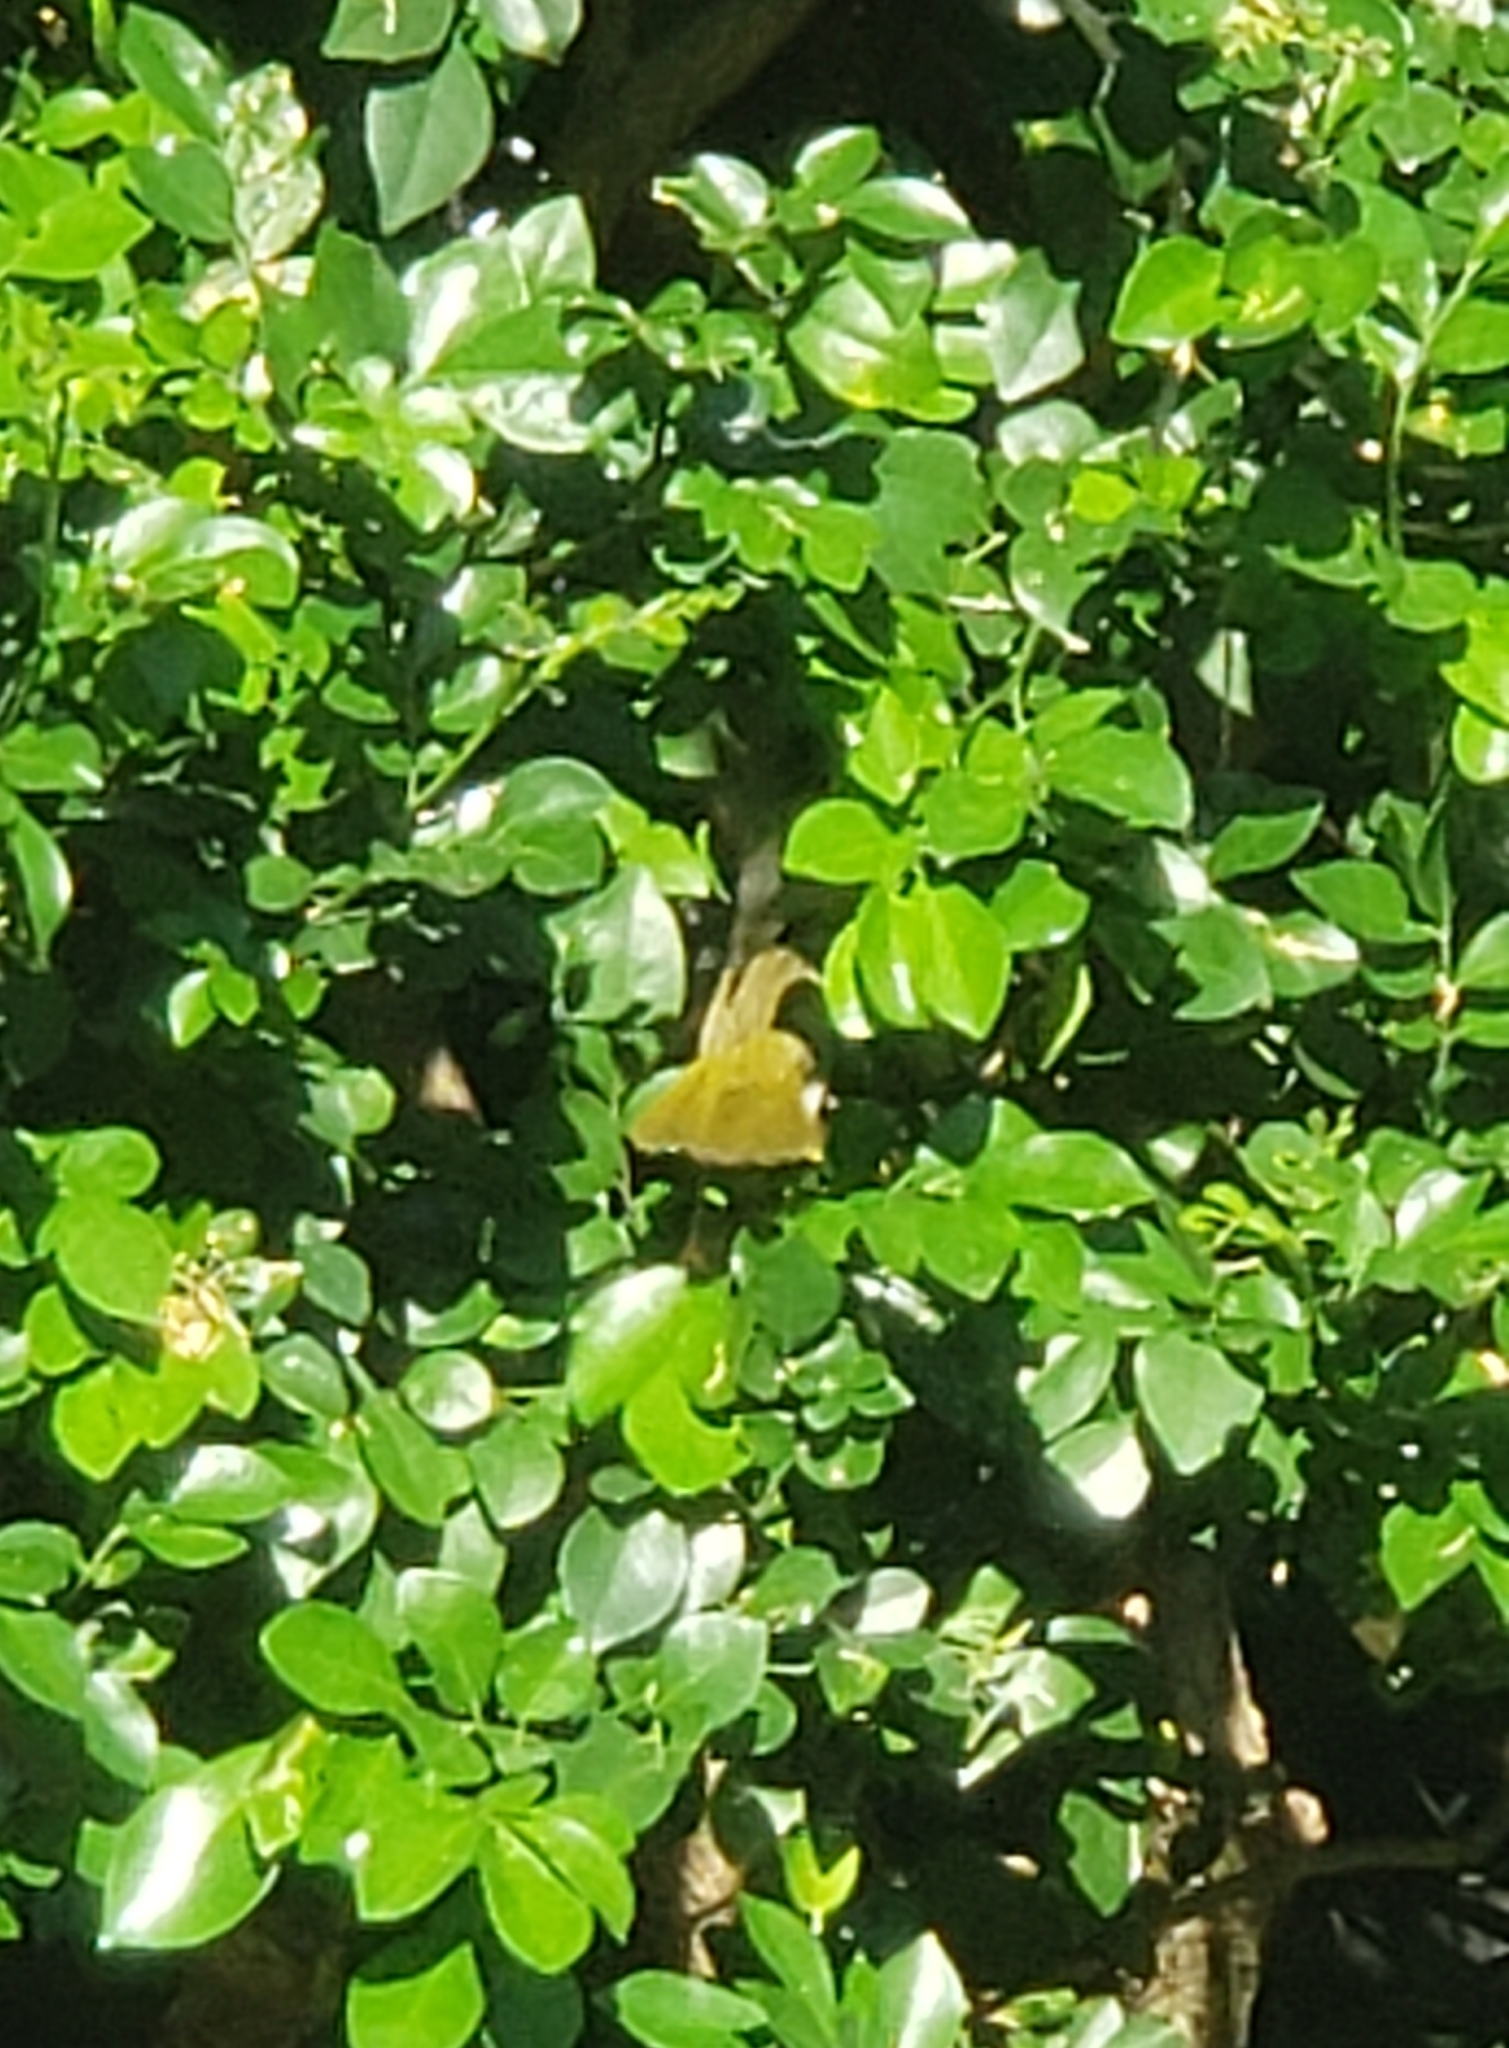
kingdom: Animalia
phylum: Chordata
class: Aves
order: Passeriformes
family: Parulidae
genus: Geothlypis
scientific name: Geothlypis trichas
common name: Common yellowthroat
